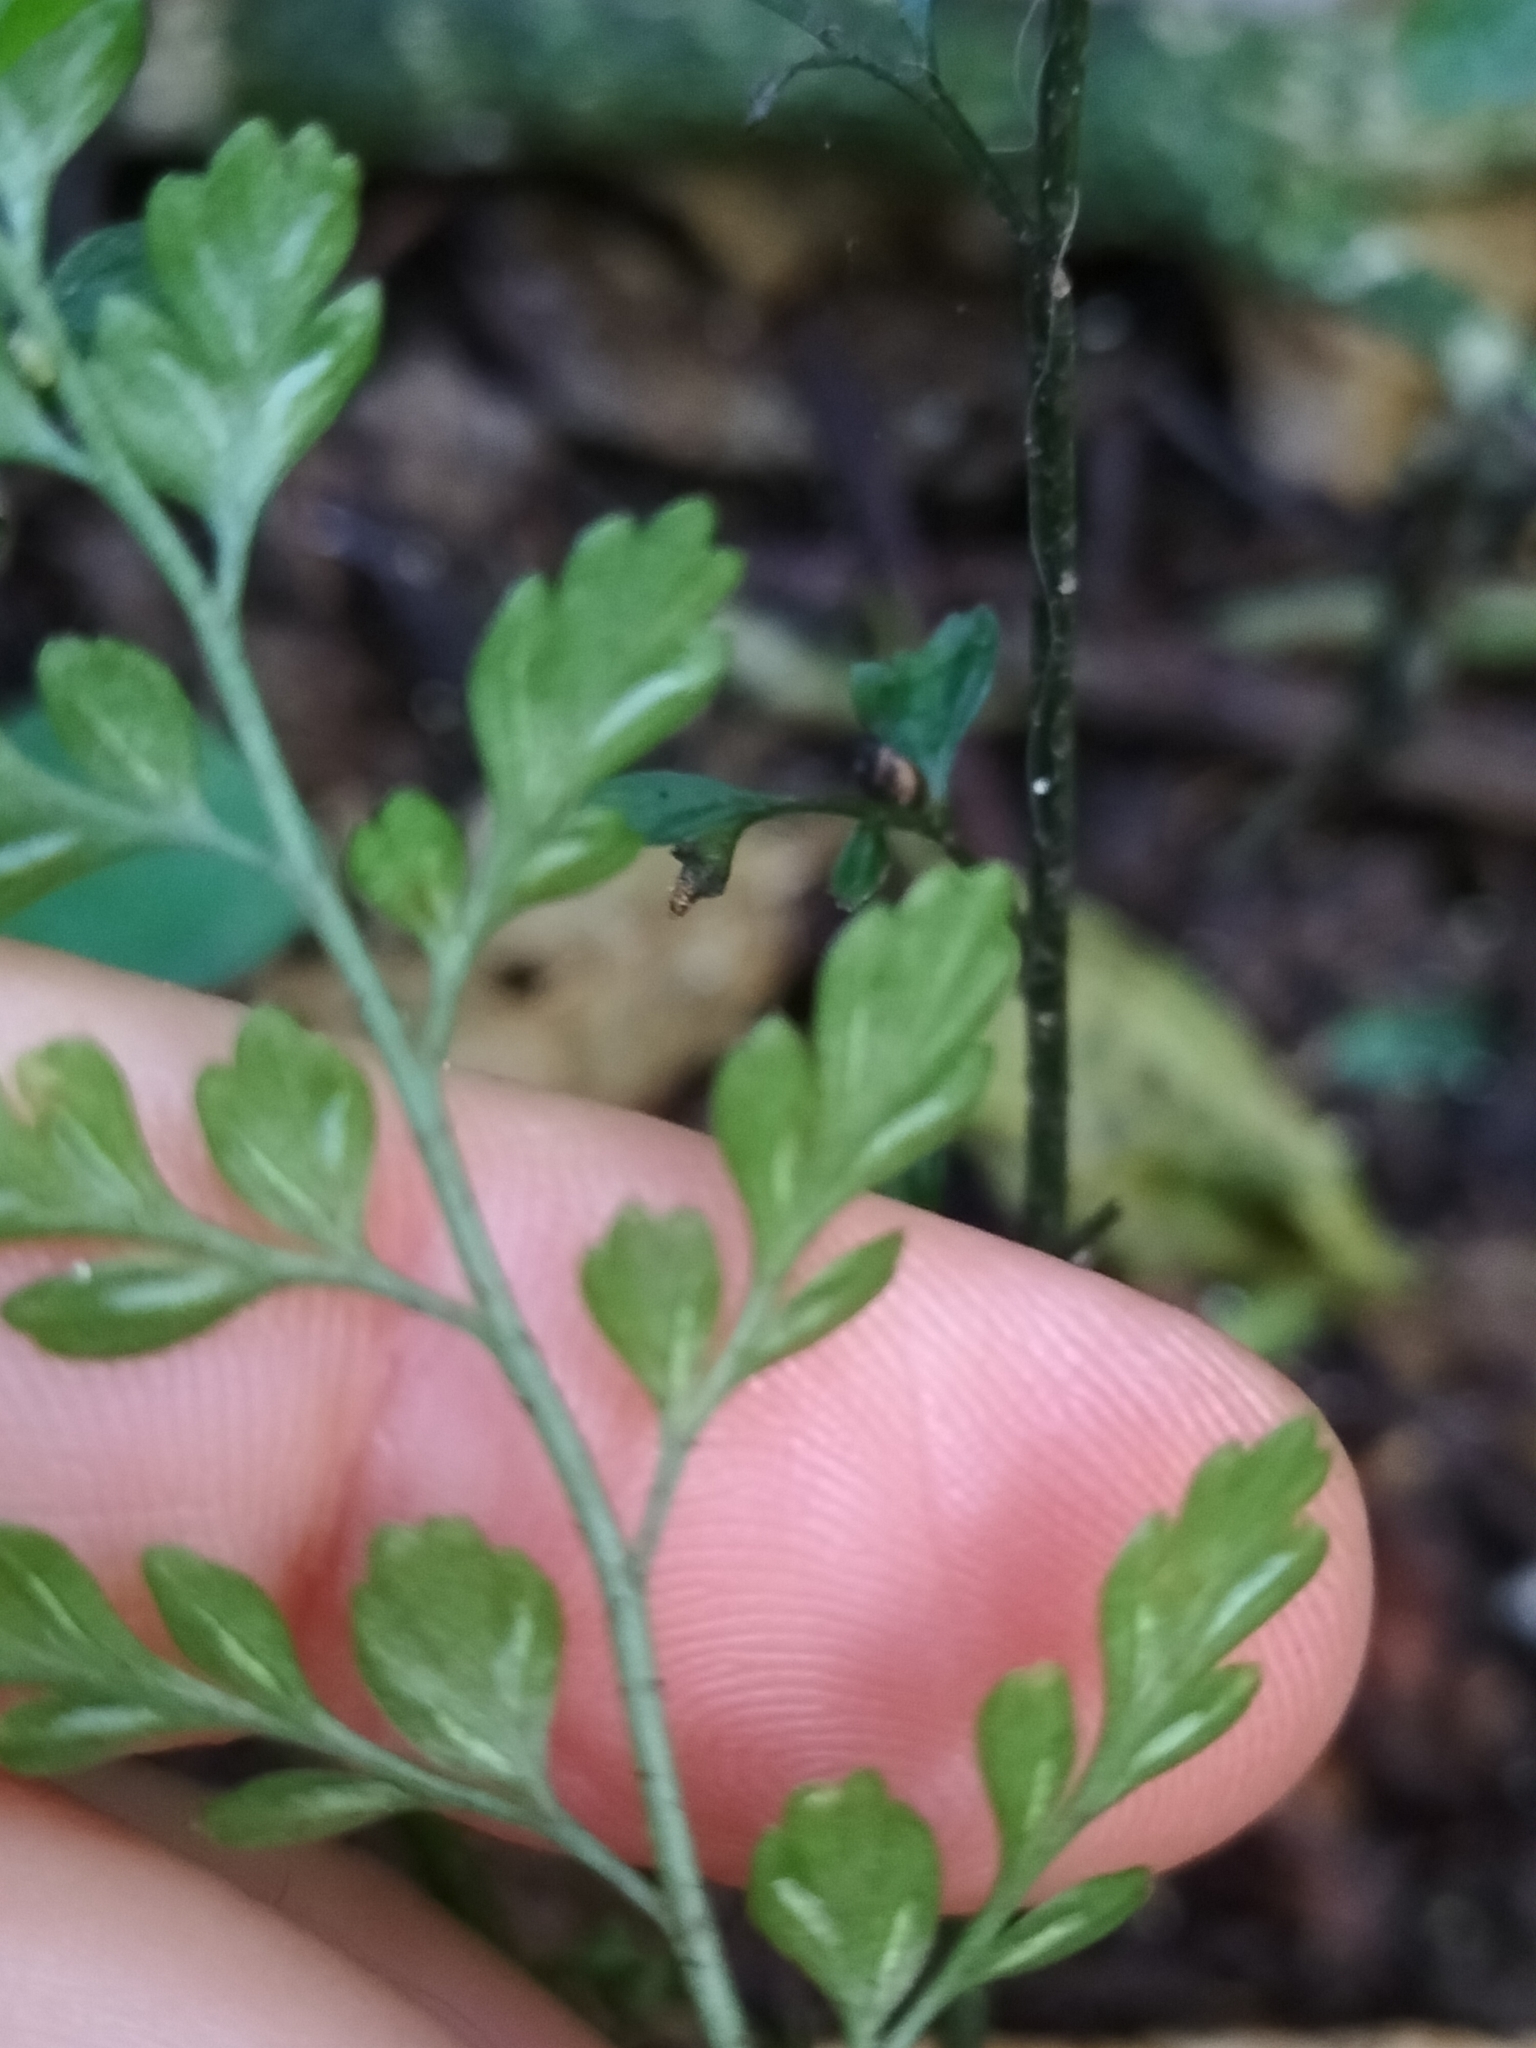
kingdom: Plantae
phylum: Tracheophyta
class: Polypodiopsida
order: Polypodiales
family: Aspleniaceae
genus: Asplenium
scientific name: Asplenium hookerianum
